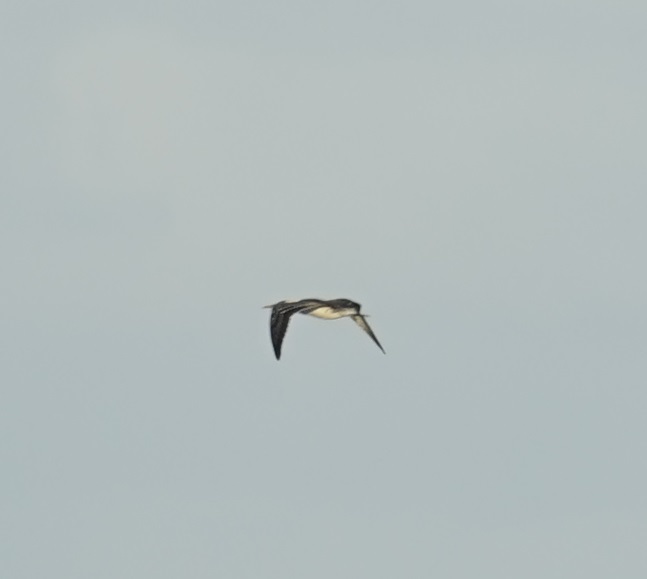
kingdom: Animalia
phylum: Chordata
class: Aves
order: Suliformes
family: Sulidae
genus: Morus
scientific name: Morus serrator
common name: Australasian gannet
